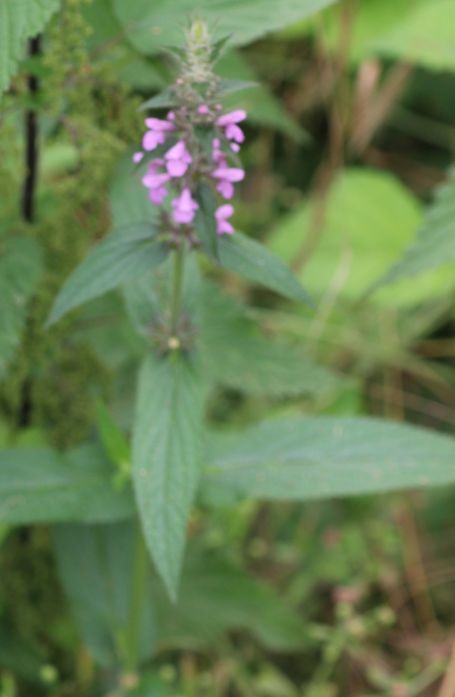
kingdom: Plantae
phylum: Tracheophyta
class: Magnoliopsida
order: Lamiales
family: Lamiaceae
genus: Stachys
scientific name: Stachys palustris
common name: Marsh woundwort
